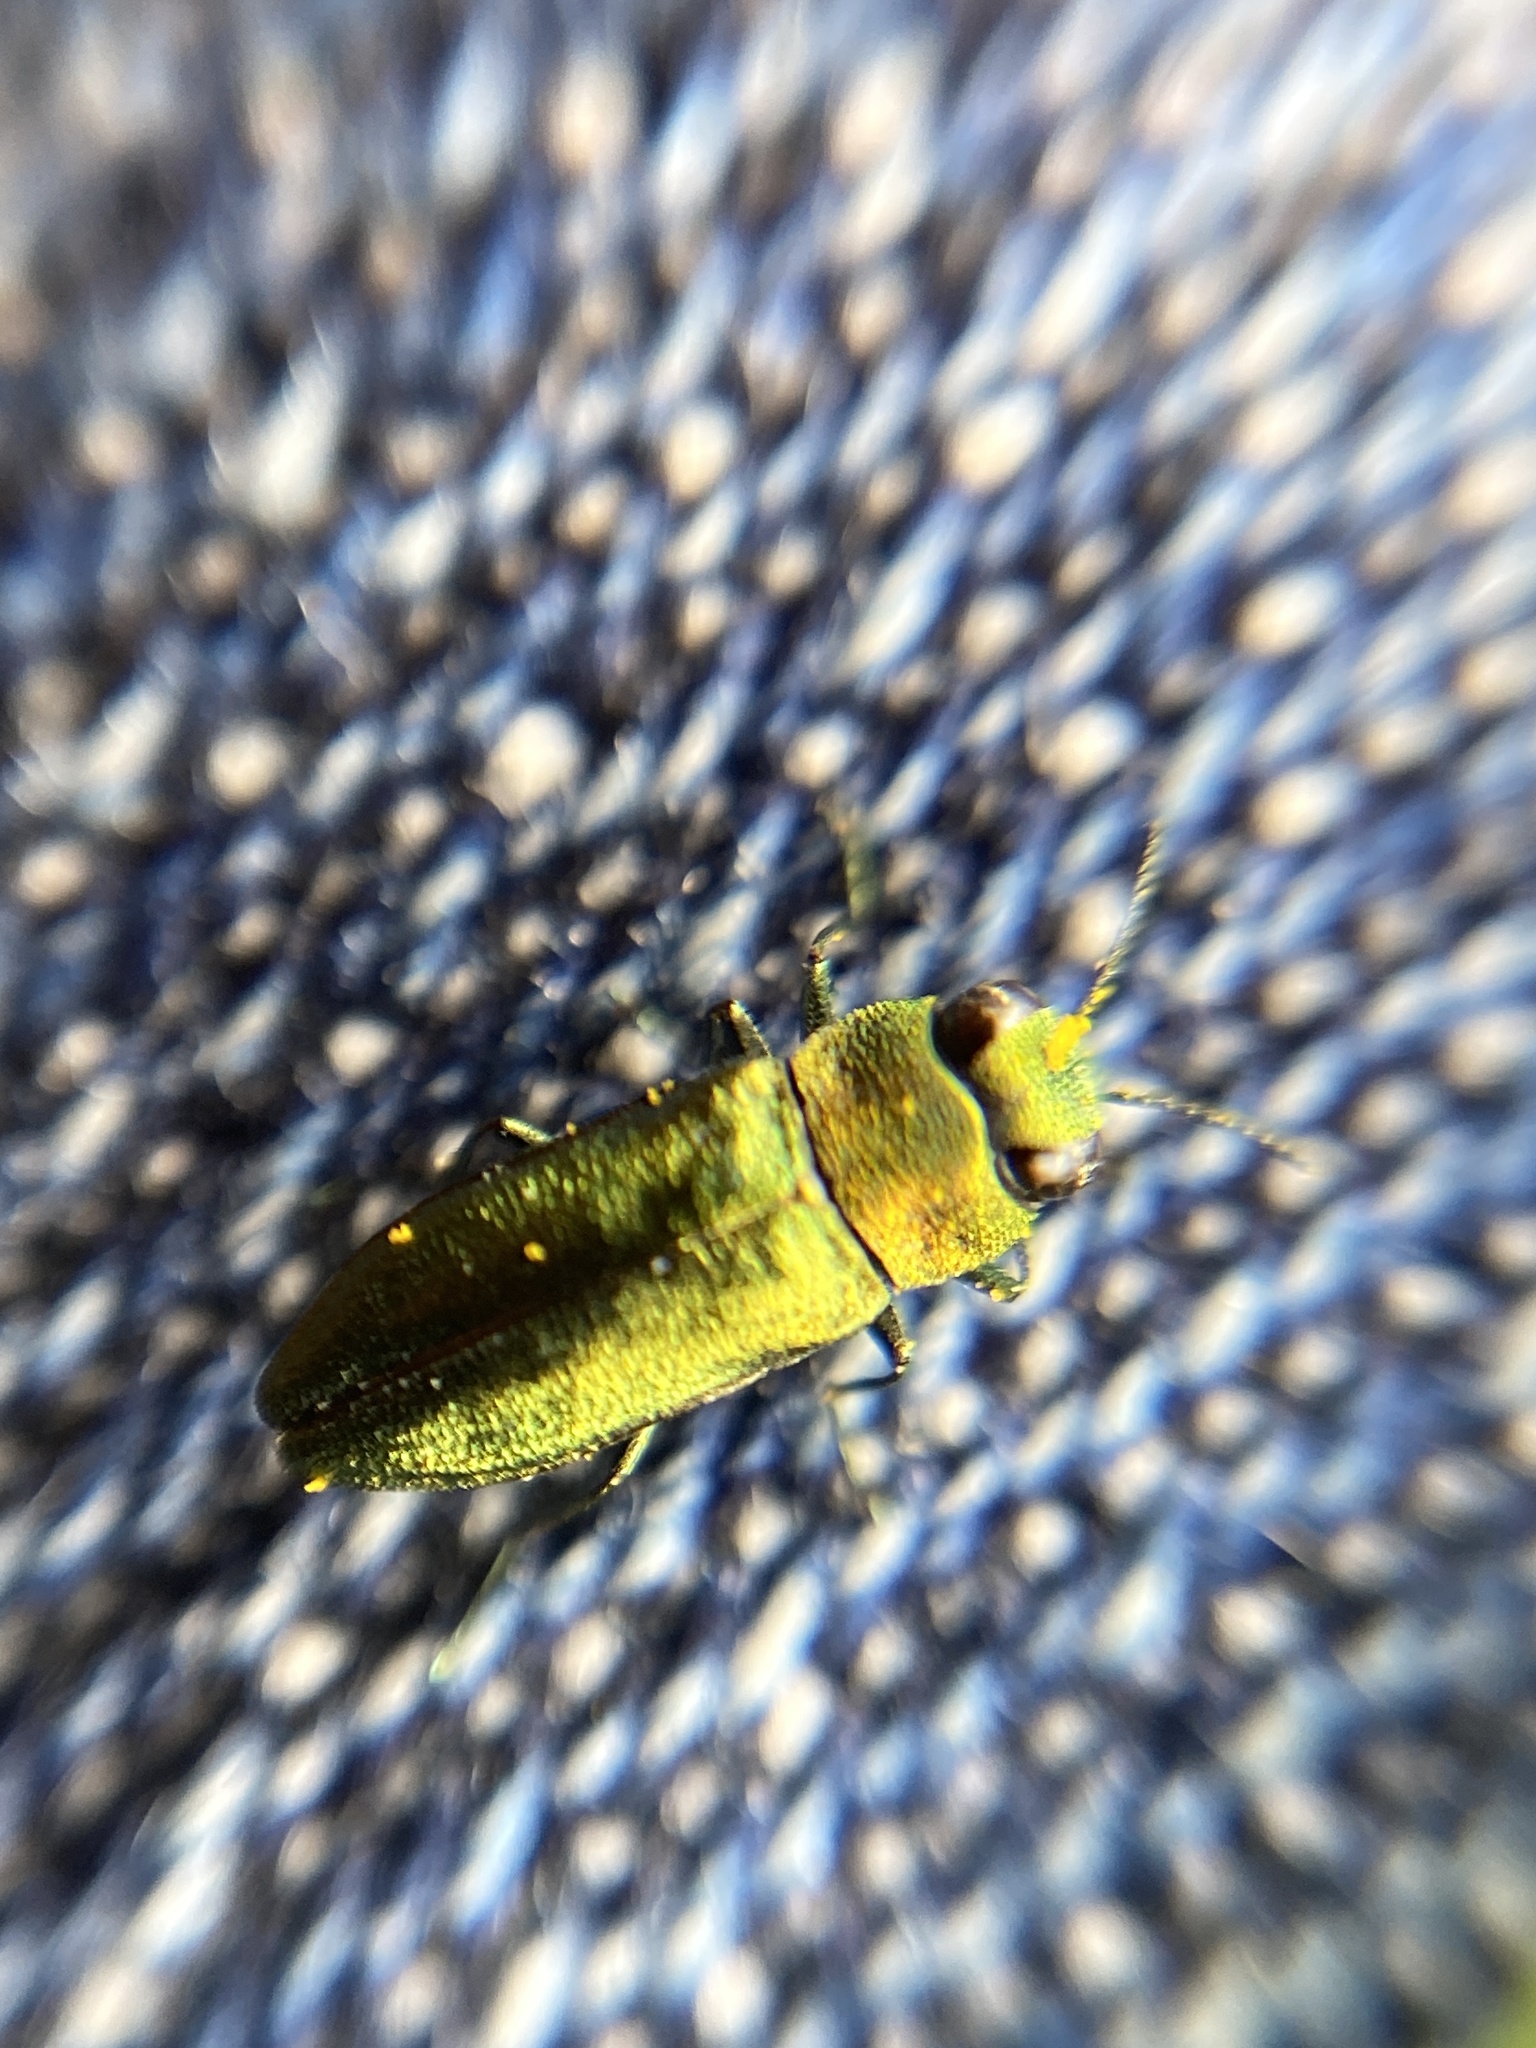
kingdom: Animalia
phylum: Arthropoda
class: Insecta
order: Coleoptera
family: Buprestidae
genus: Anthaxia
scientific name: Anthaxia nitidula
